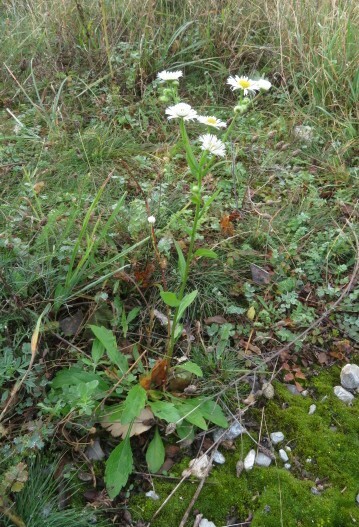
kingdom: Plantae
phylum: Tracheophyta
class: Magnoliopsida
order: Asterales
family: Asteraceae
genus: Erigeron
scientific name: Erigeron annuus
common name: Tall fleabane
